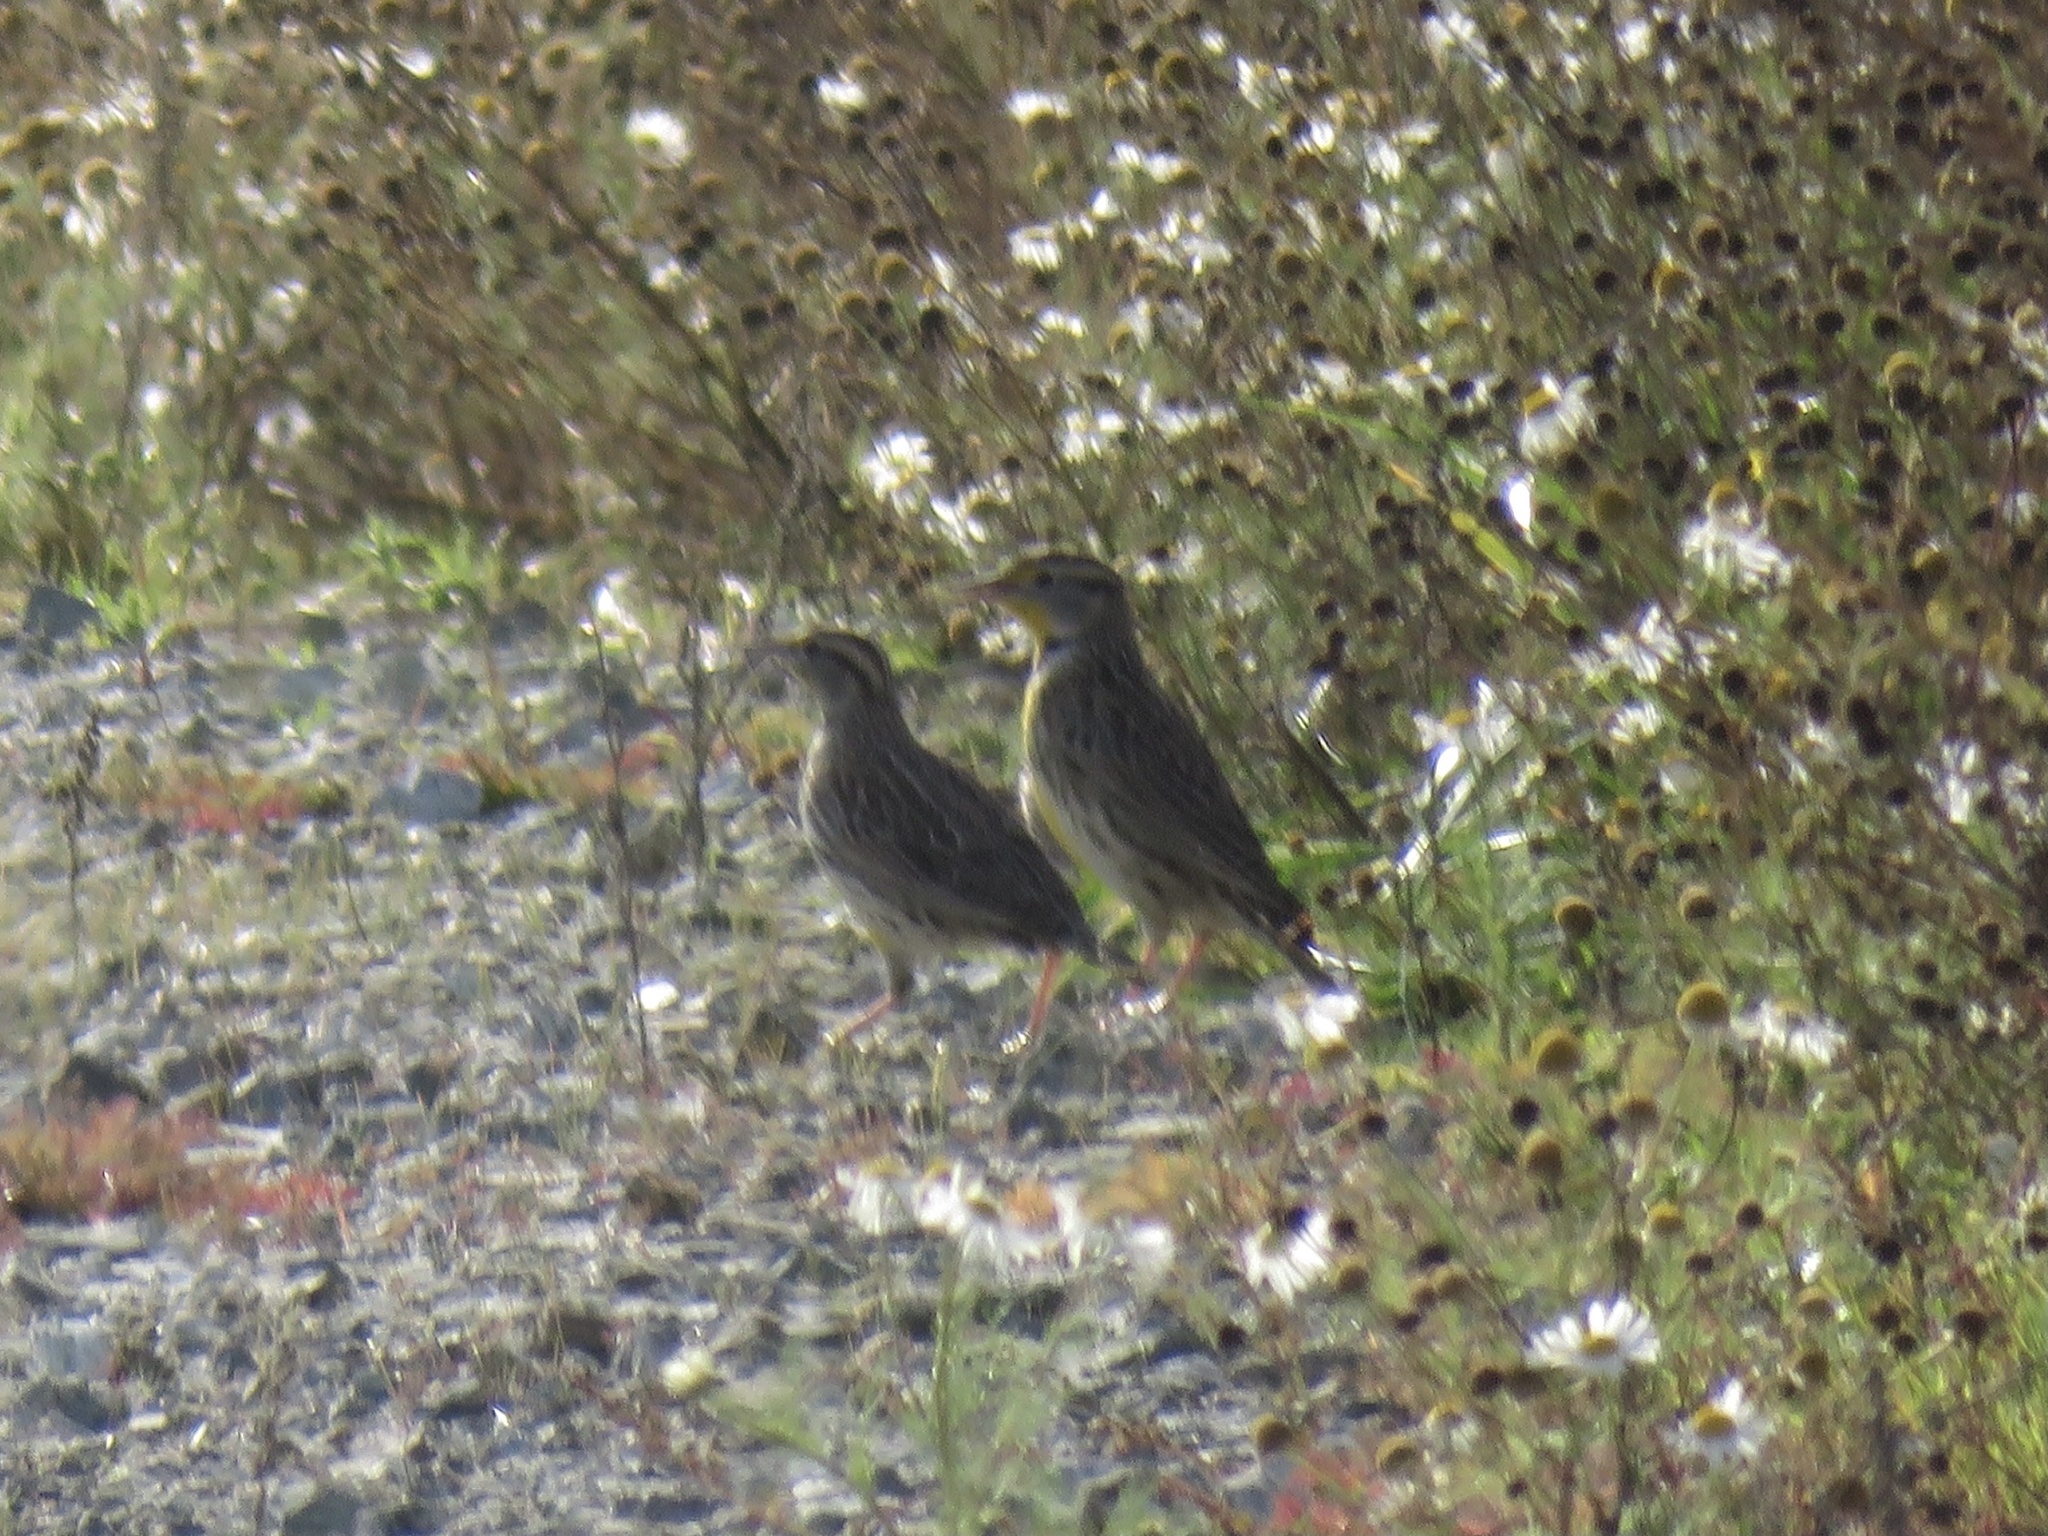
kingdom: Animalia
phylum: Chordata
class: Aves
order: Passeriformes
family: Icteridae
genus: Sturnella
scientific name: Sturnella neglecta
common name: Western meadowlark
